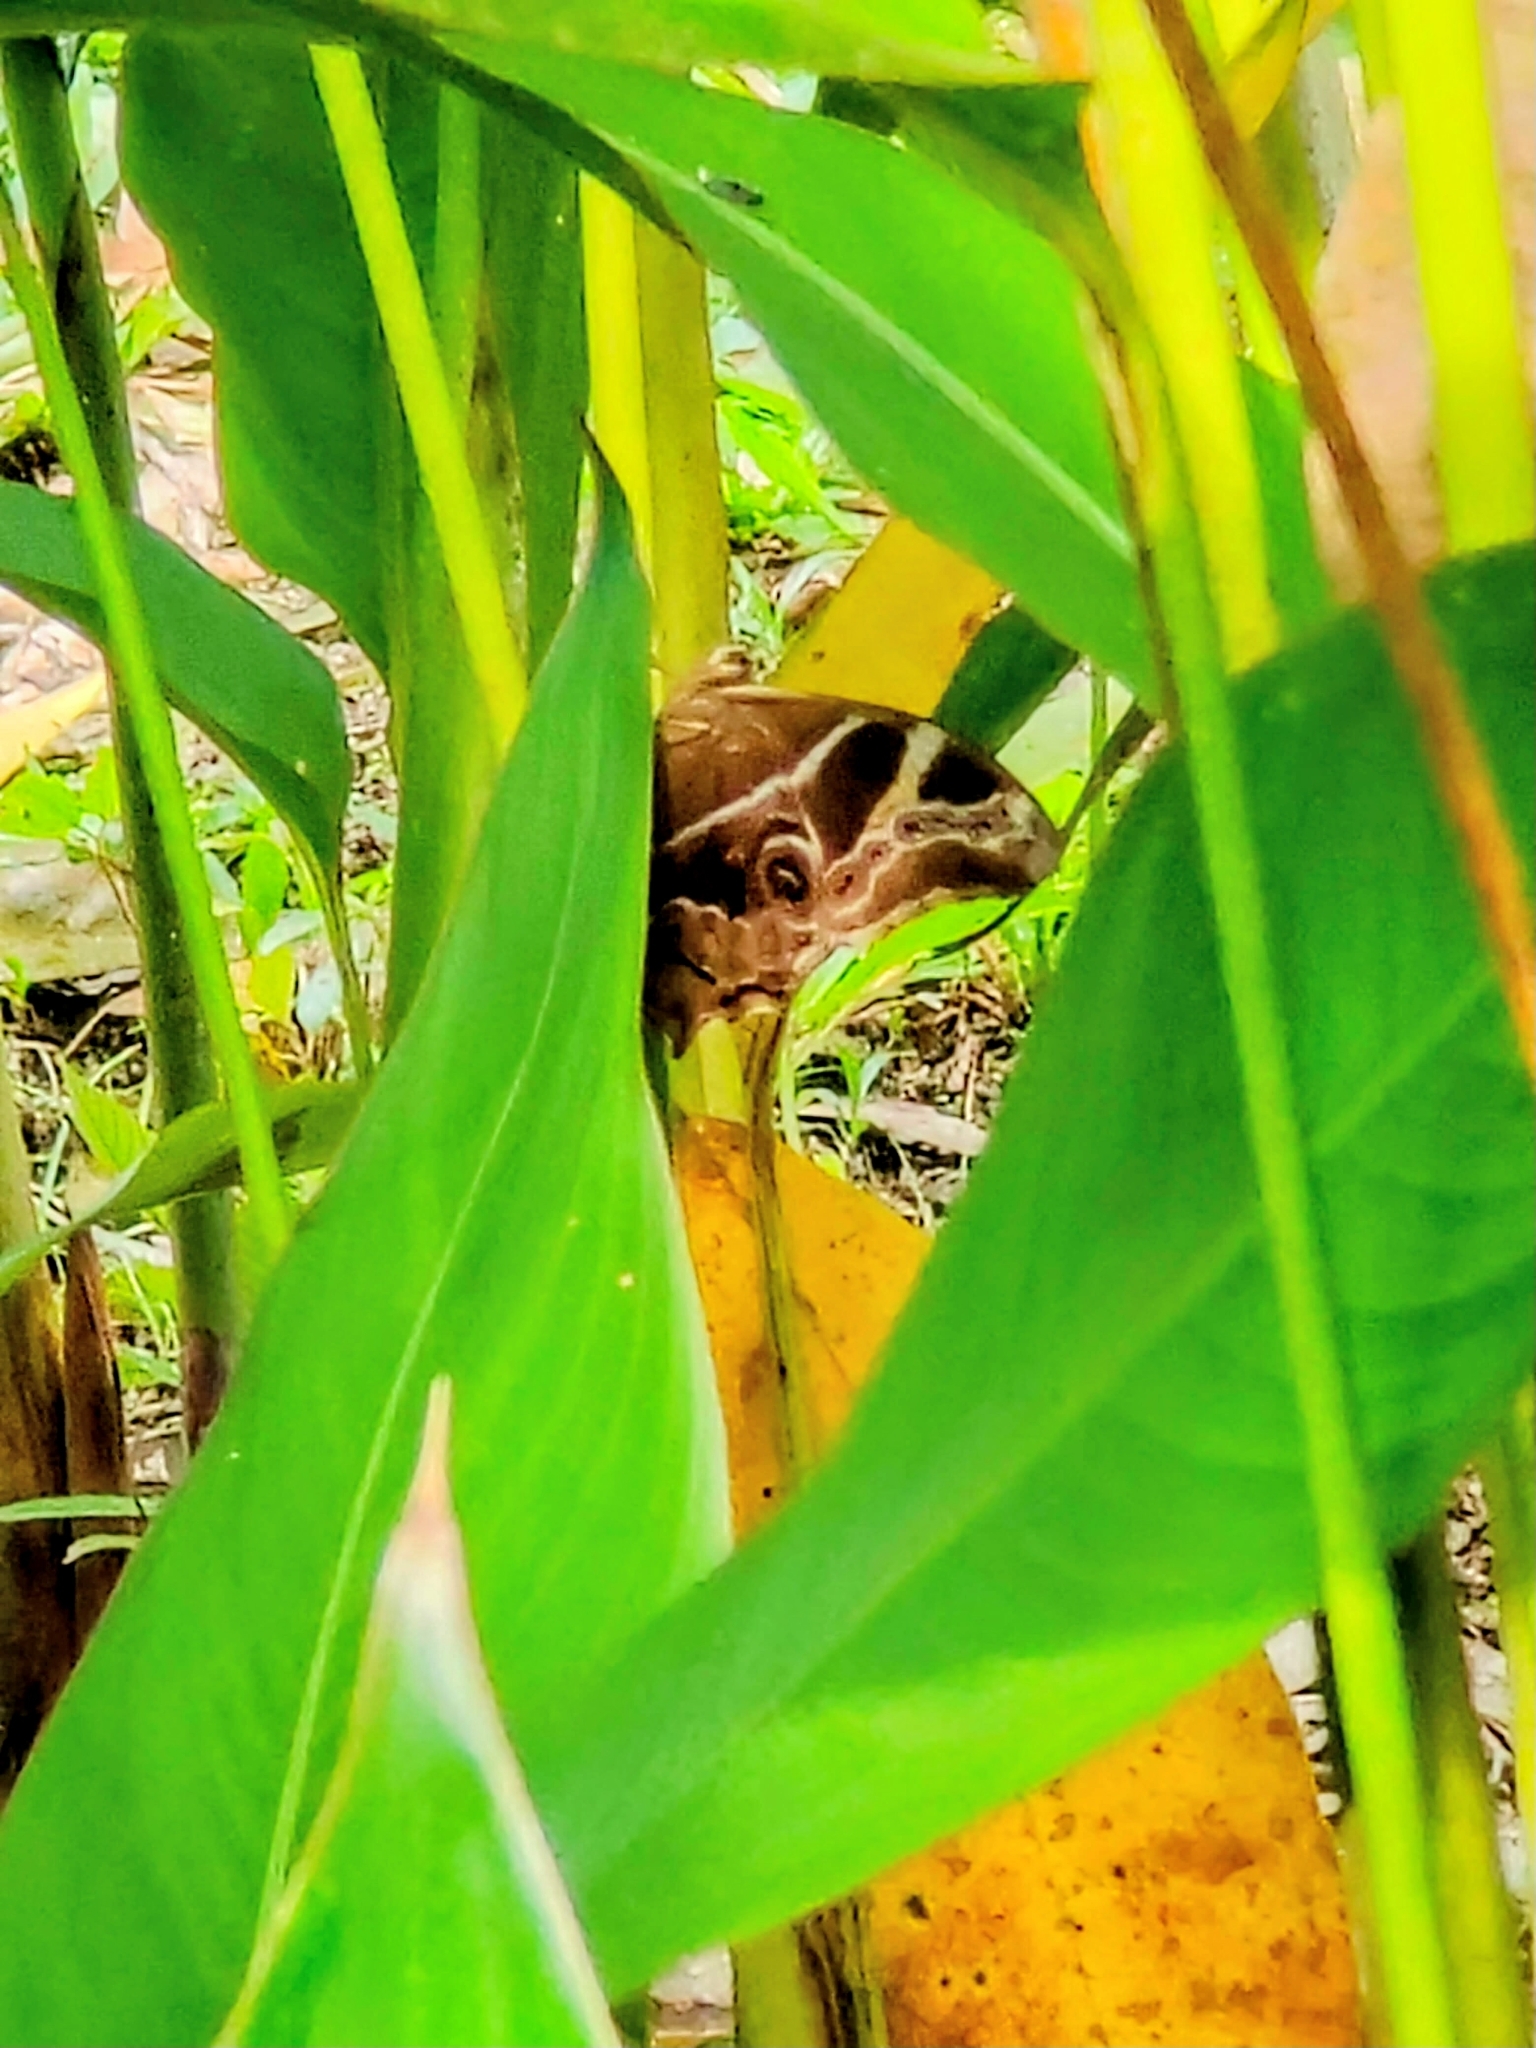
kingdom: Animalia
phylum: Arthropoda
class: Insecta
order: Lepidoptera
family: Nymphalidae
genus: Lethe
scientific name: Lethe europa
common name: Bamboo treebrown
